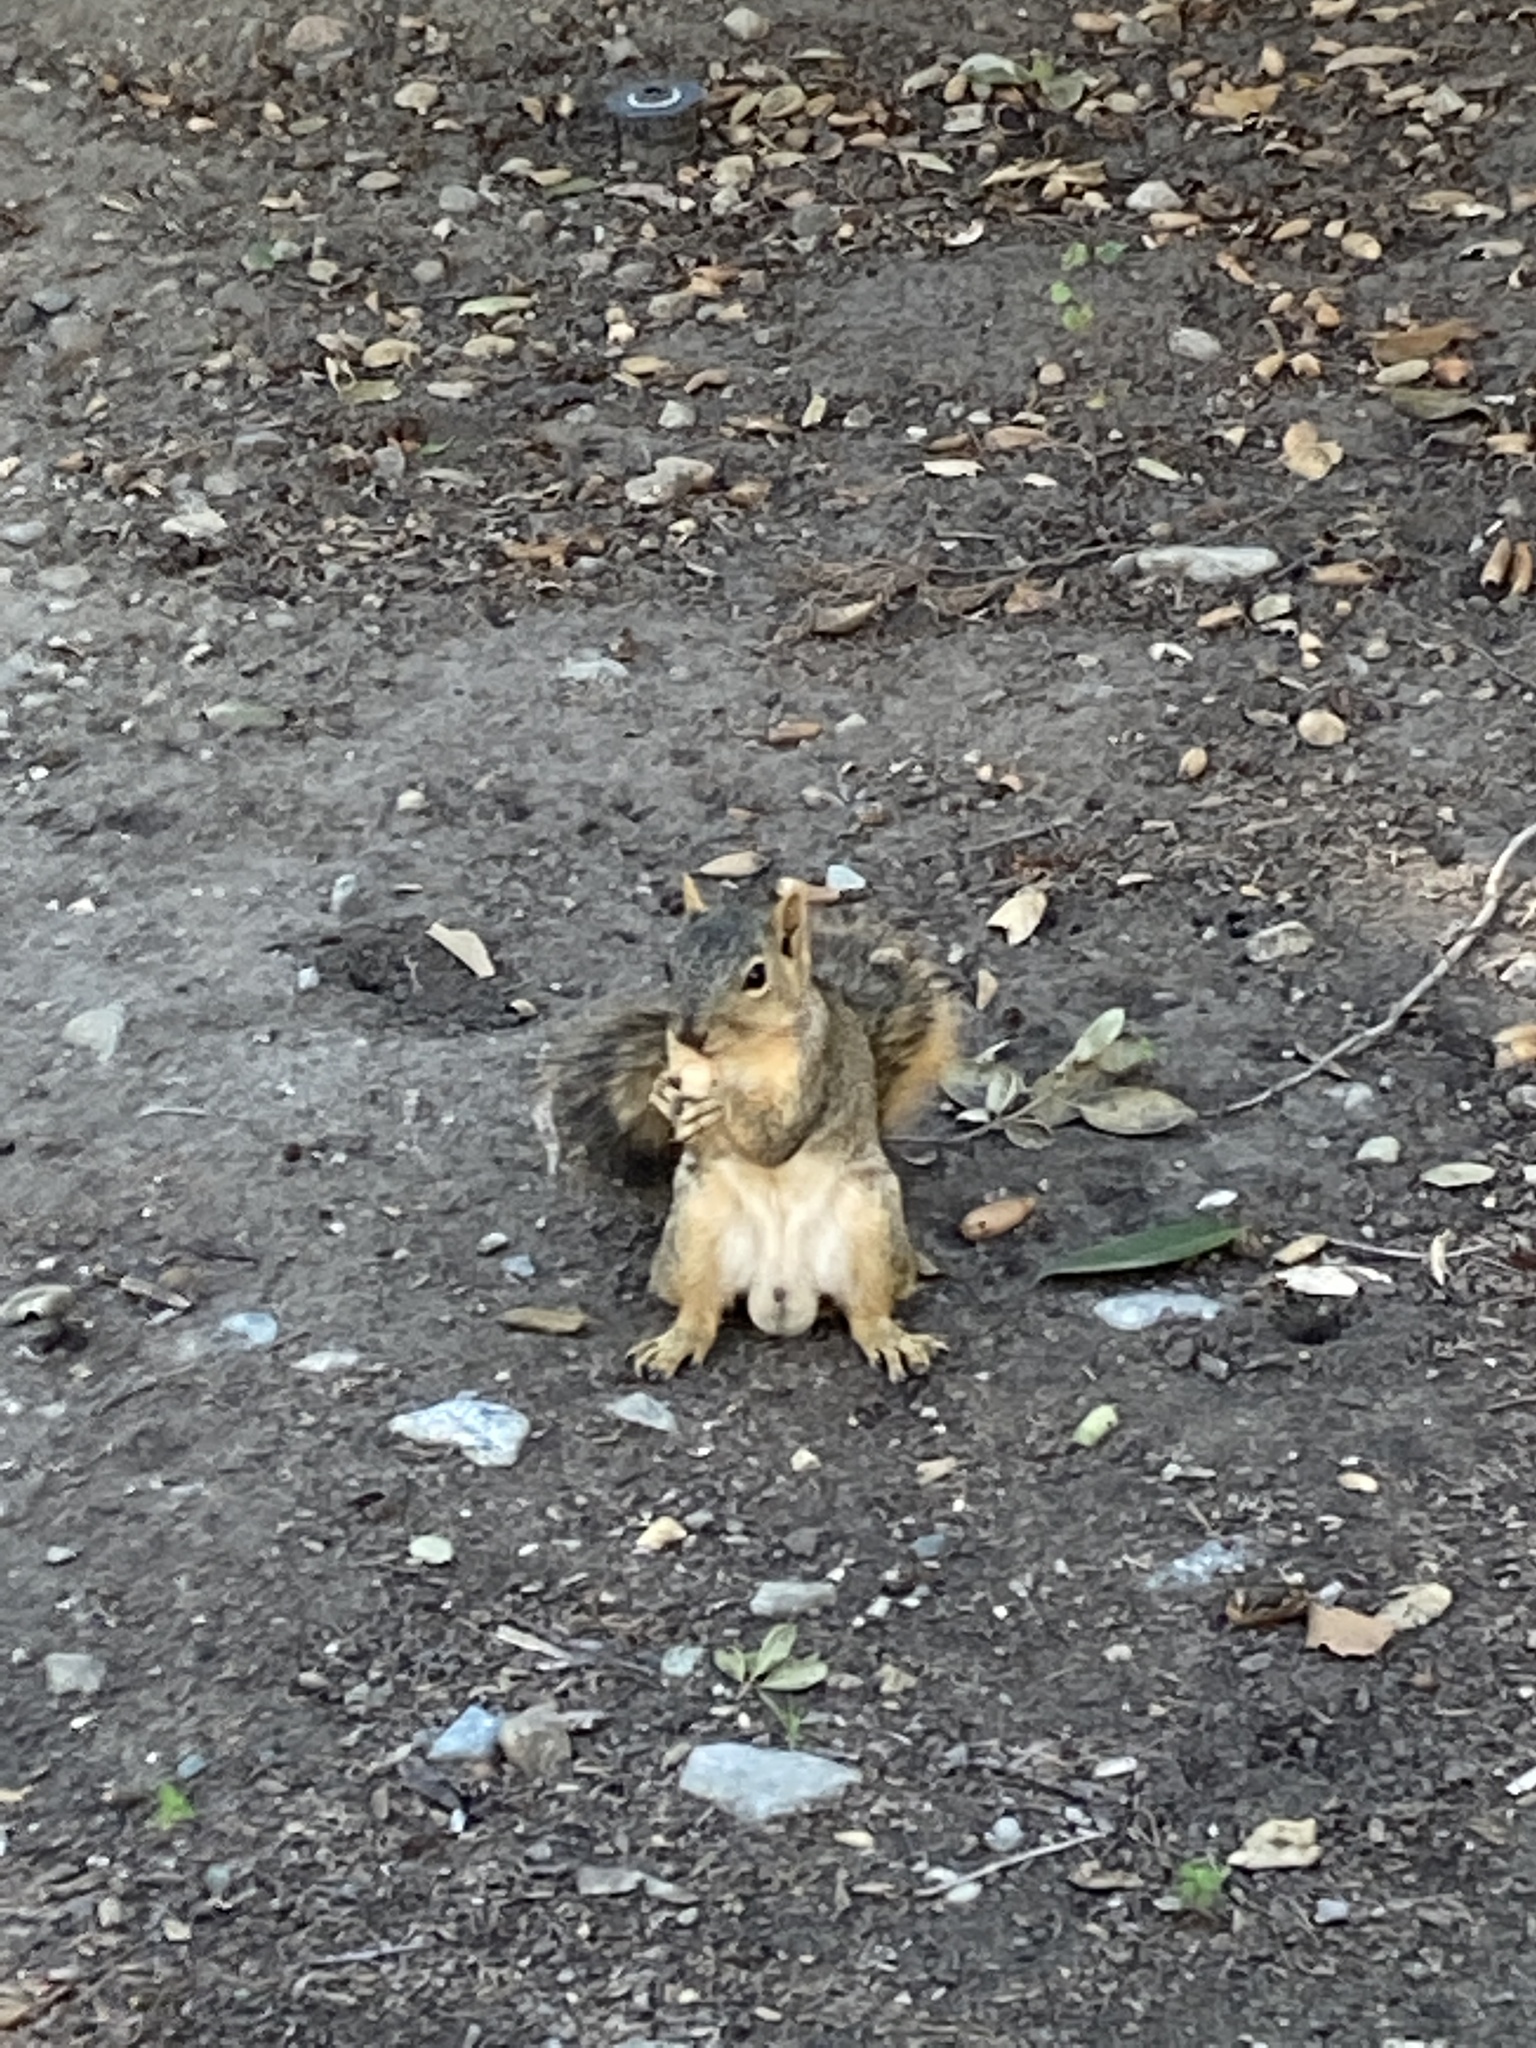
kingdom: Animalia
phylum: Chordata
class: Mammalia
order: Rodentia
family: Sciuridae
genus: Sciurus
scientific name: Sciurus niger
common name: Fox squirrel
